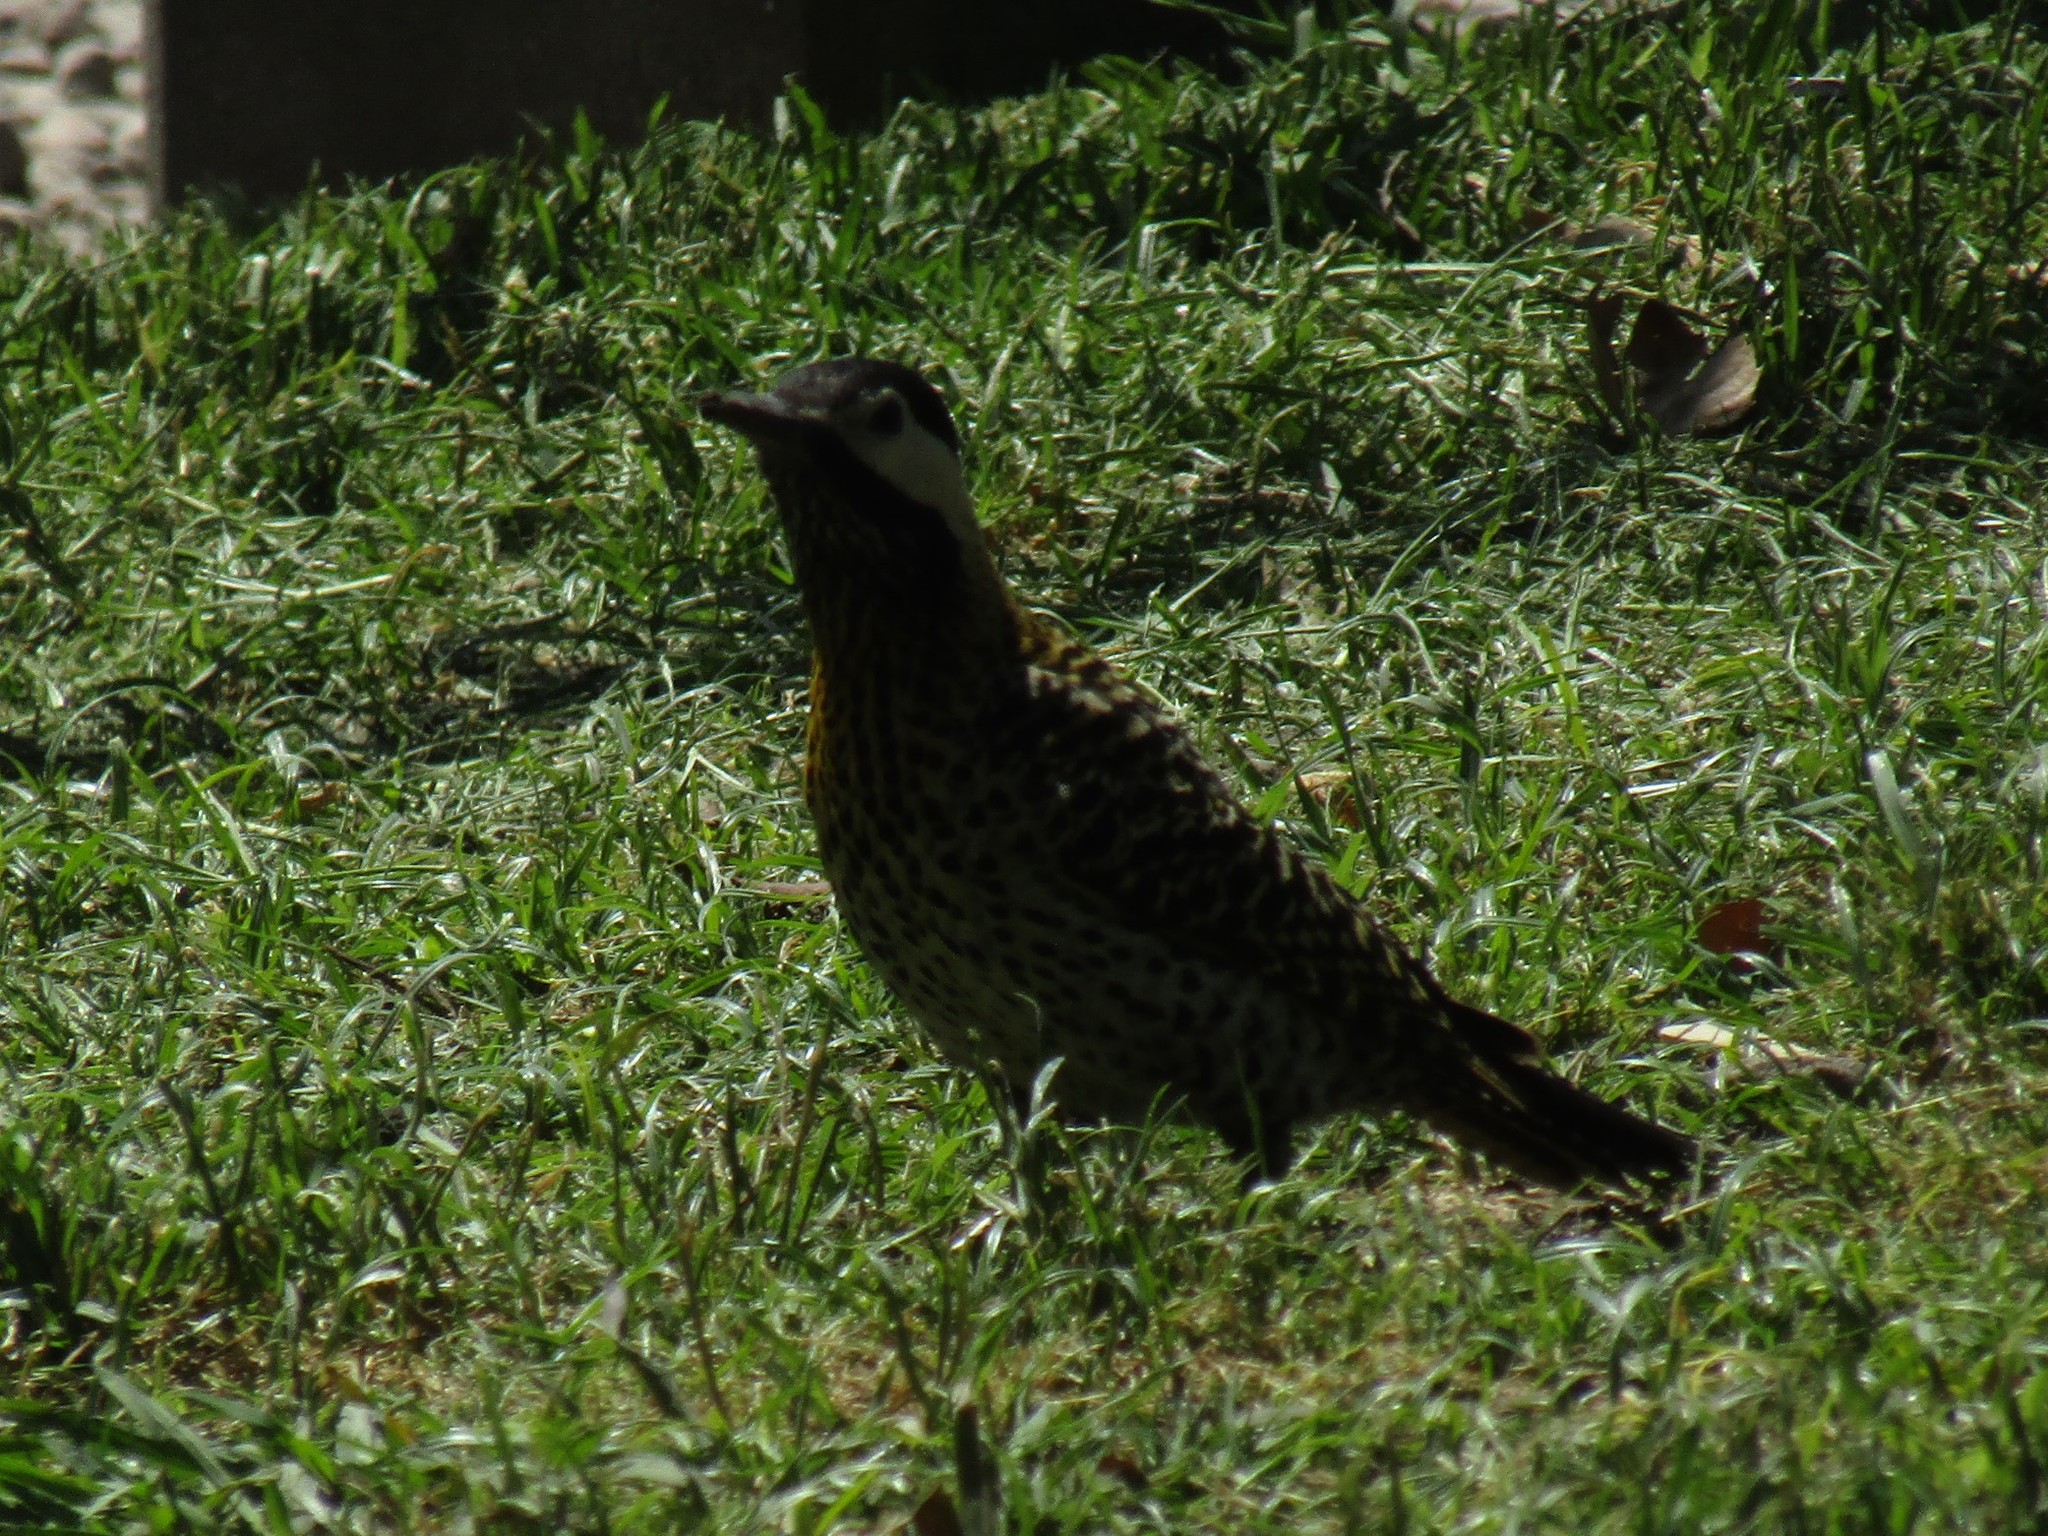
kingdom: Animalia
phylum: Chordata
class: Aves
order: Piciformes
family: Picidae
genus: Colaptes
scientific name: Colaptes melanochloros
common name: Green-barred woodpecker
